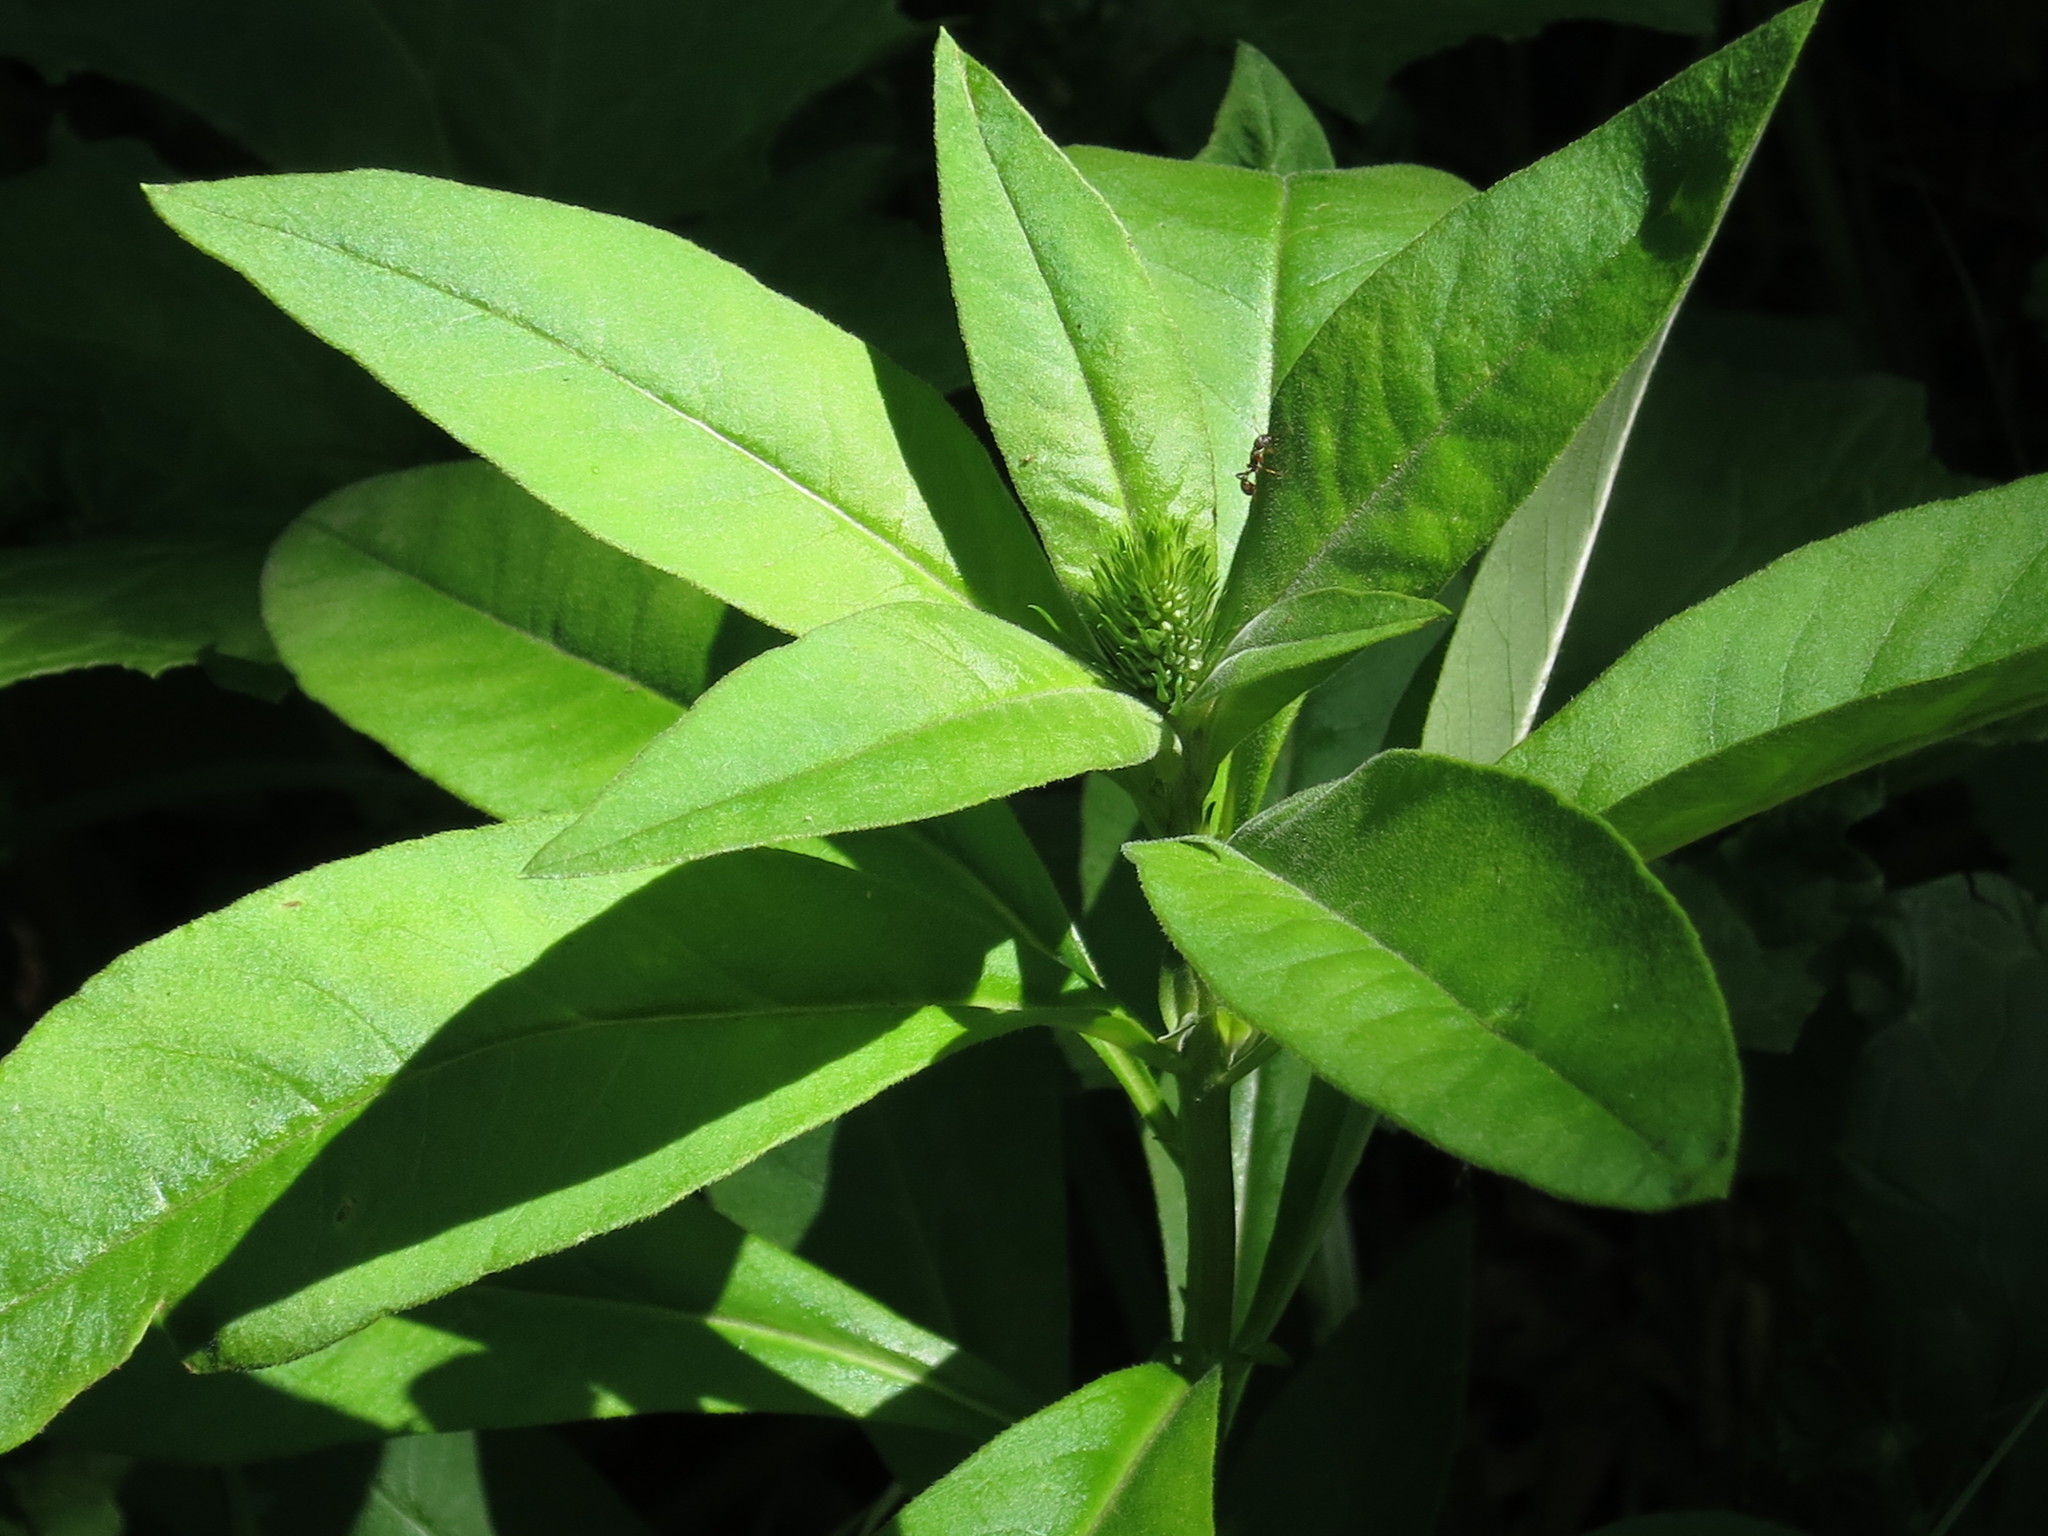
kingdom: Plantae
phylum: Tracheophyta
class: Magnoliopsida
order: Ericales
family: Primulaceae
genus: Lysimachia
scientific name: Lysimachia volkovae
